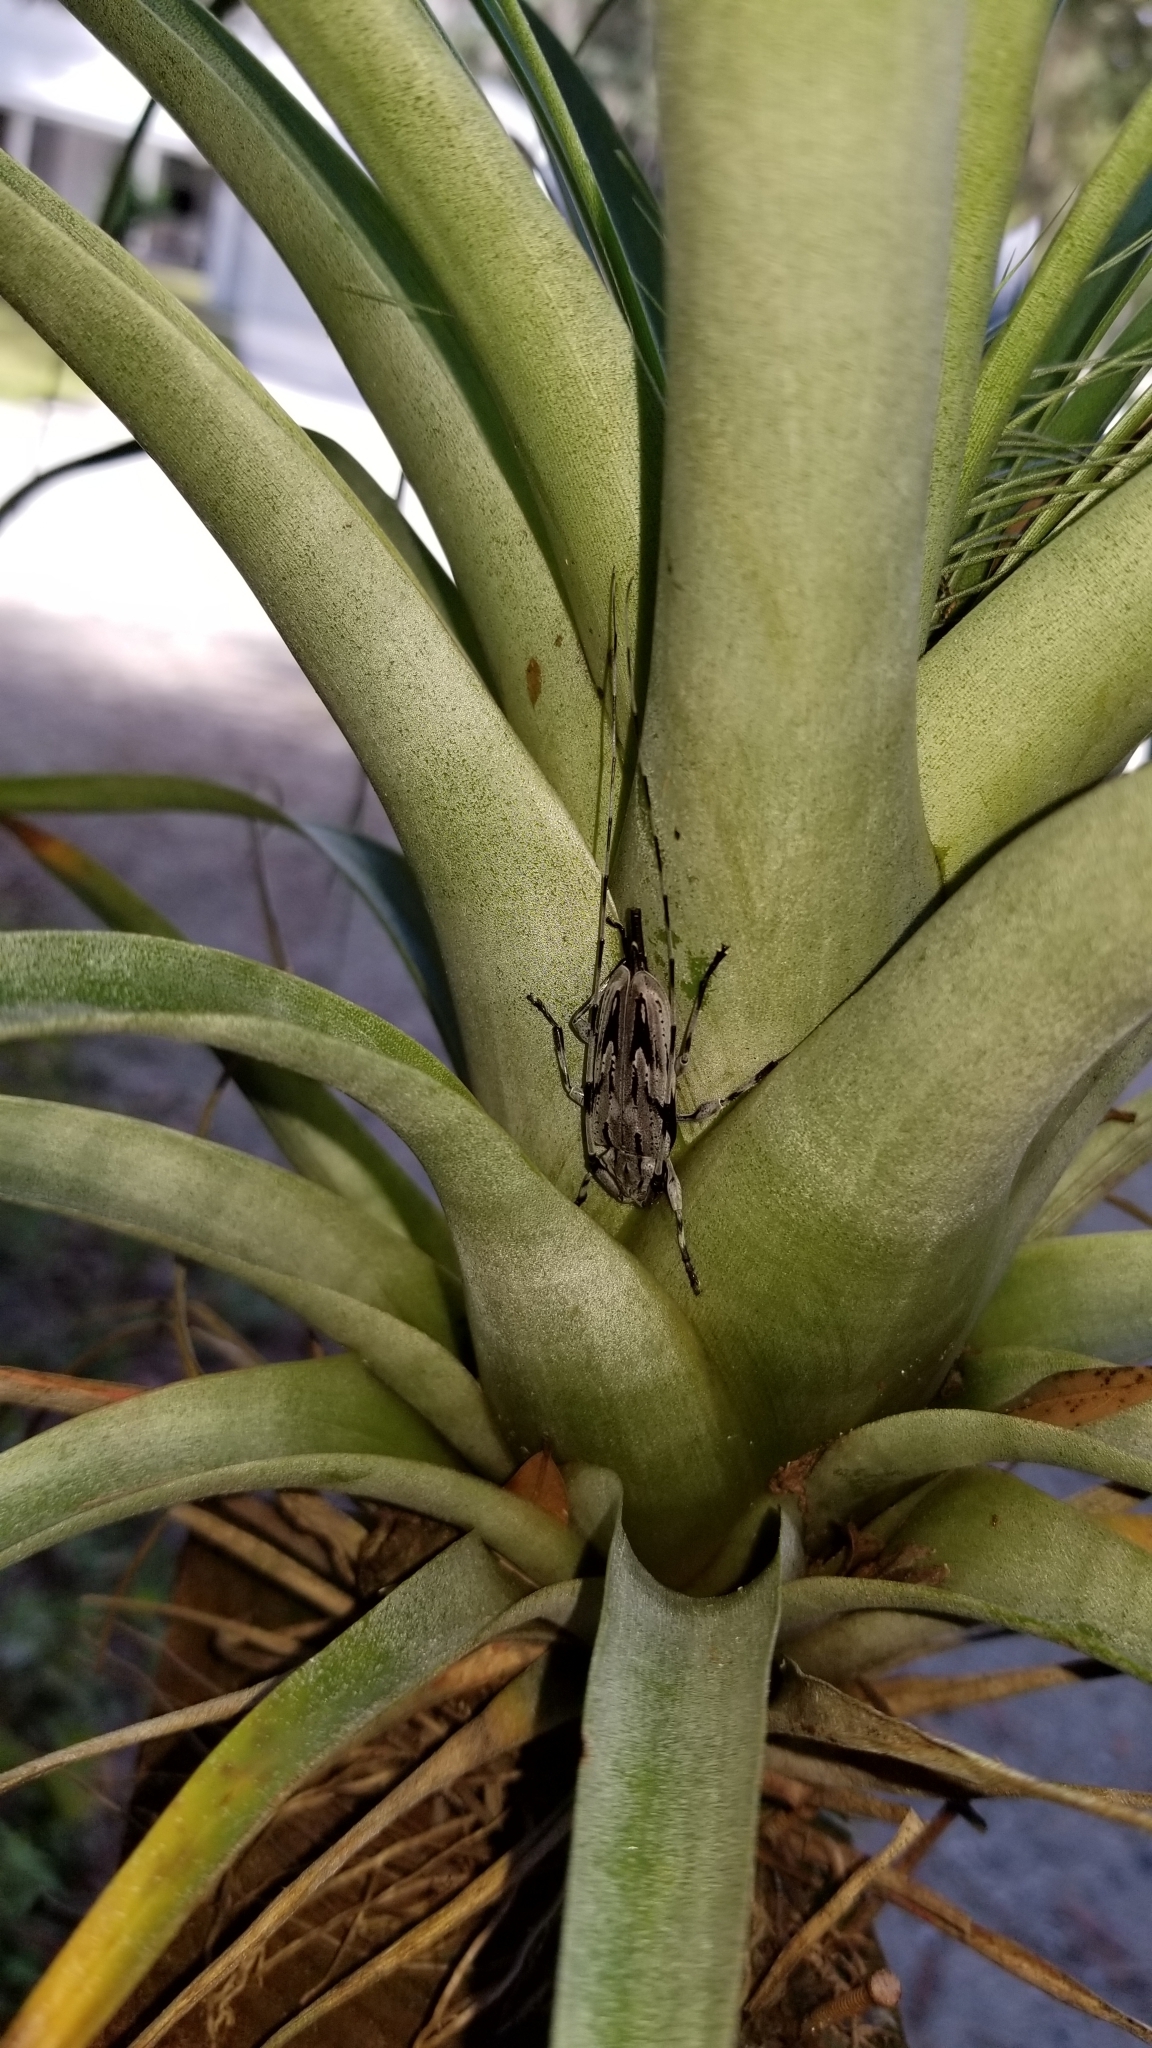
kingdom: Animalia
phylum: Arthropoda
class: Insecta
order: Coleoptera
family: Cerambycidae
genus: Acanthocinus
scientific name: Acanthocinus nodosus
